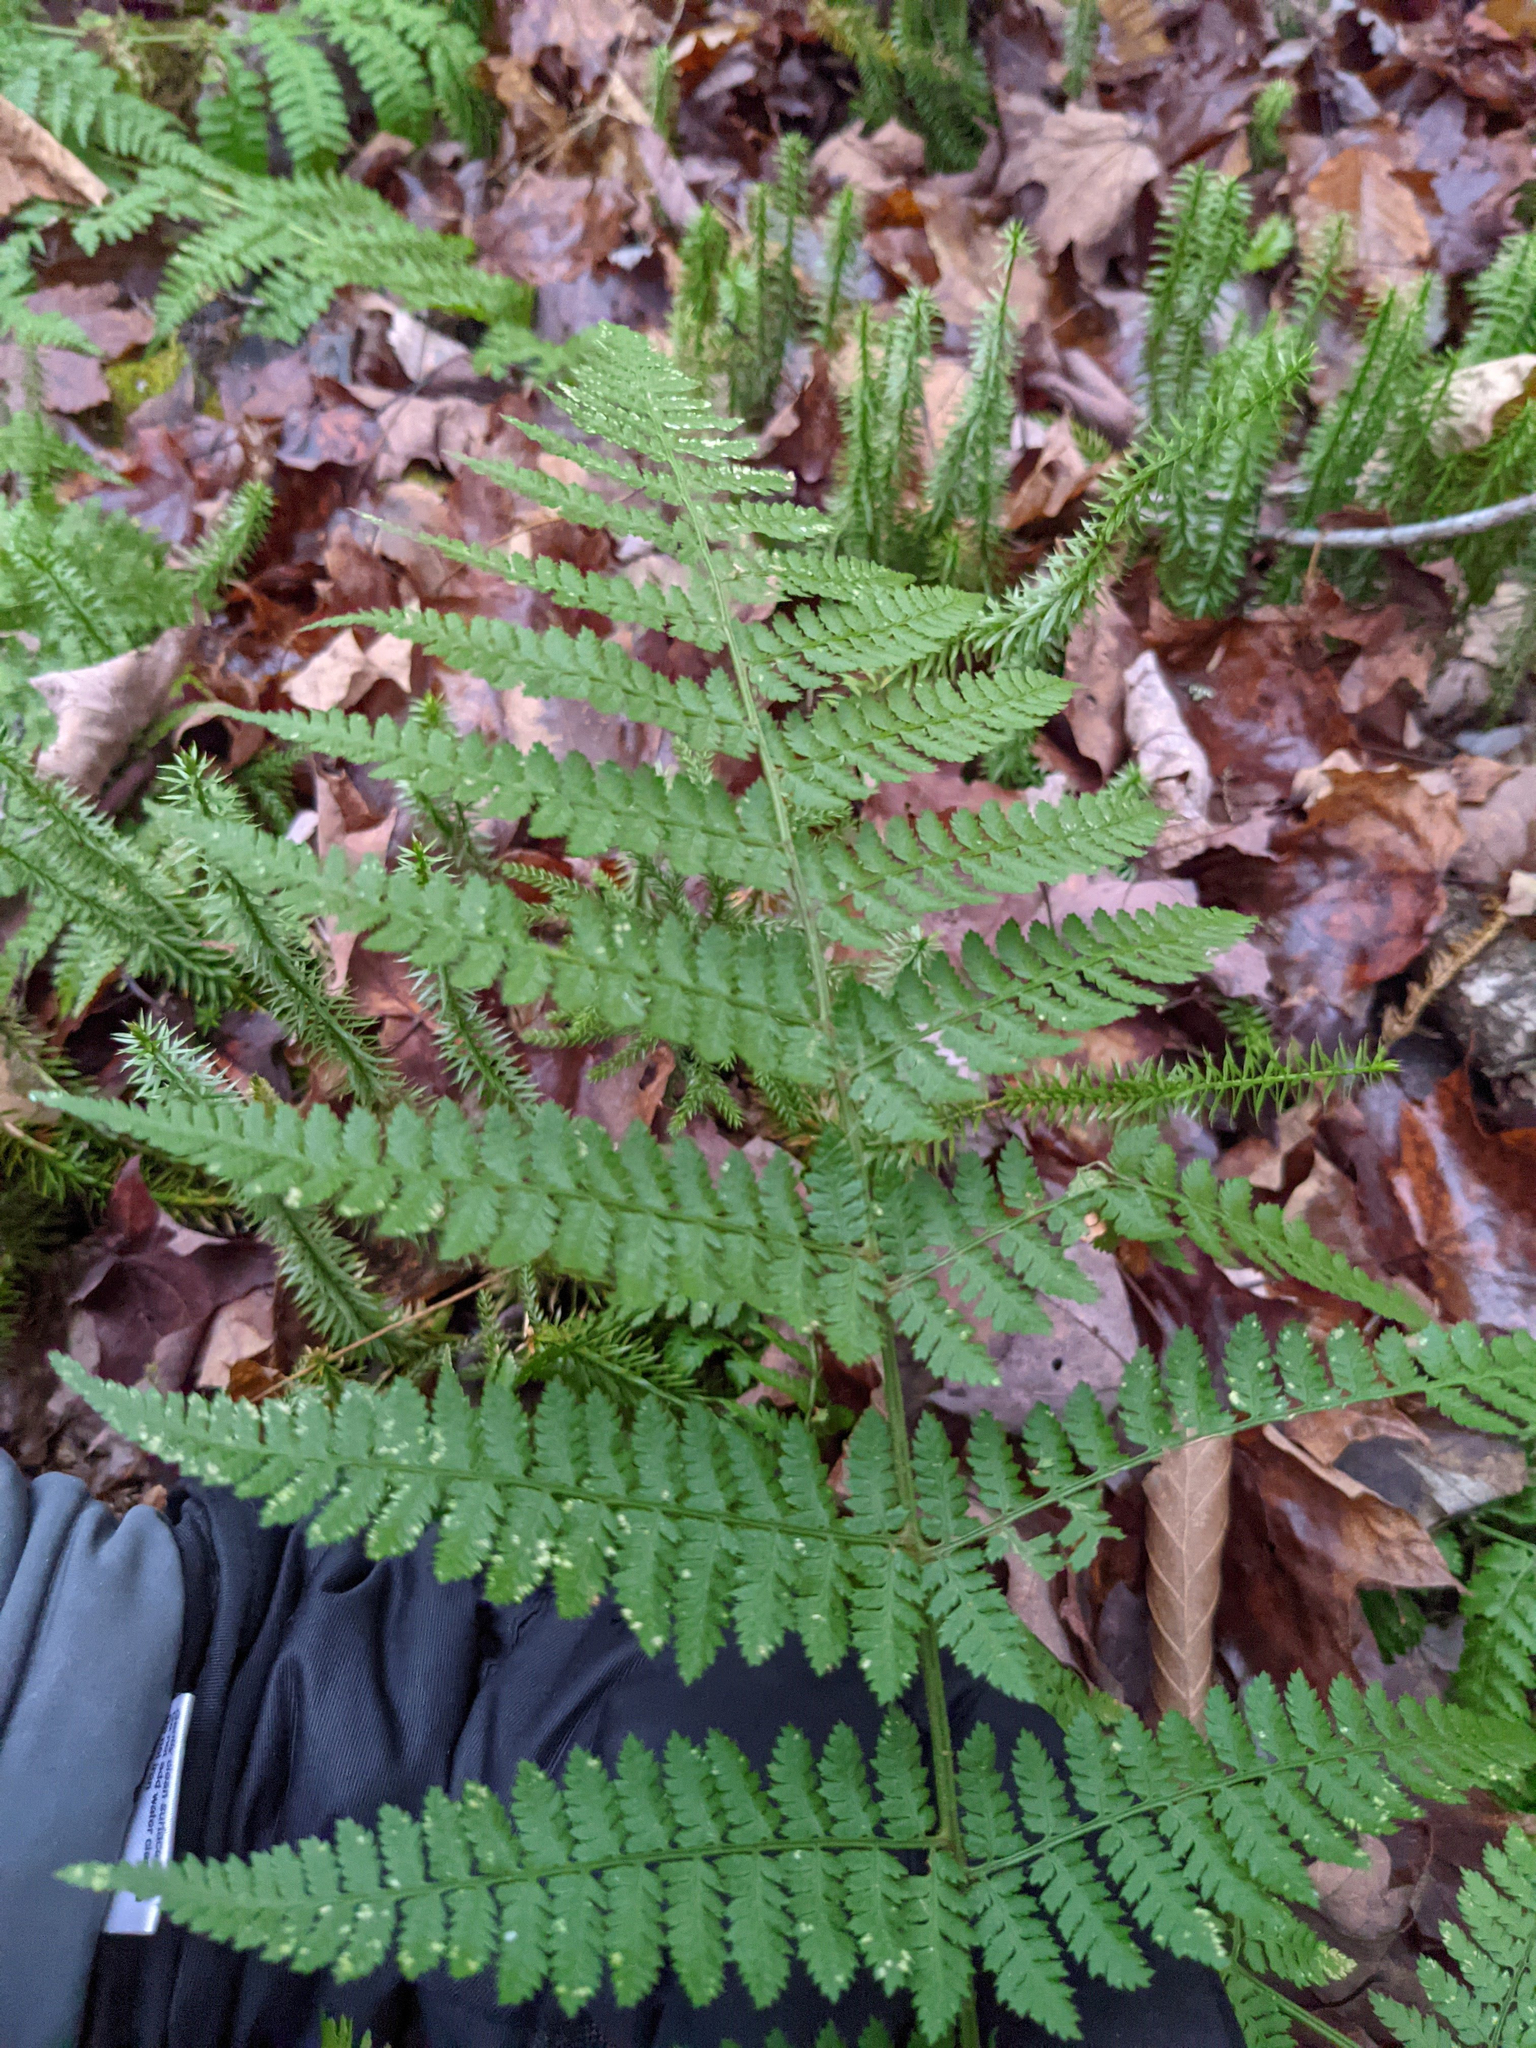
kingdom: Plantae
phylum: Tracheophyta
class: Polypodiopsida
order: Polypodiales
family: Dryopteridaceae
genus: Dryopteris
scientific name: Dryopteris intermedia
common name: Evergreen wood fern
